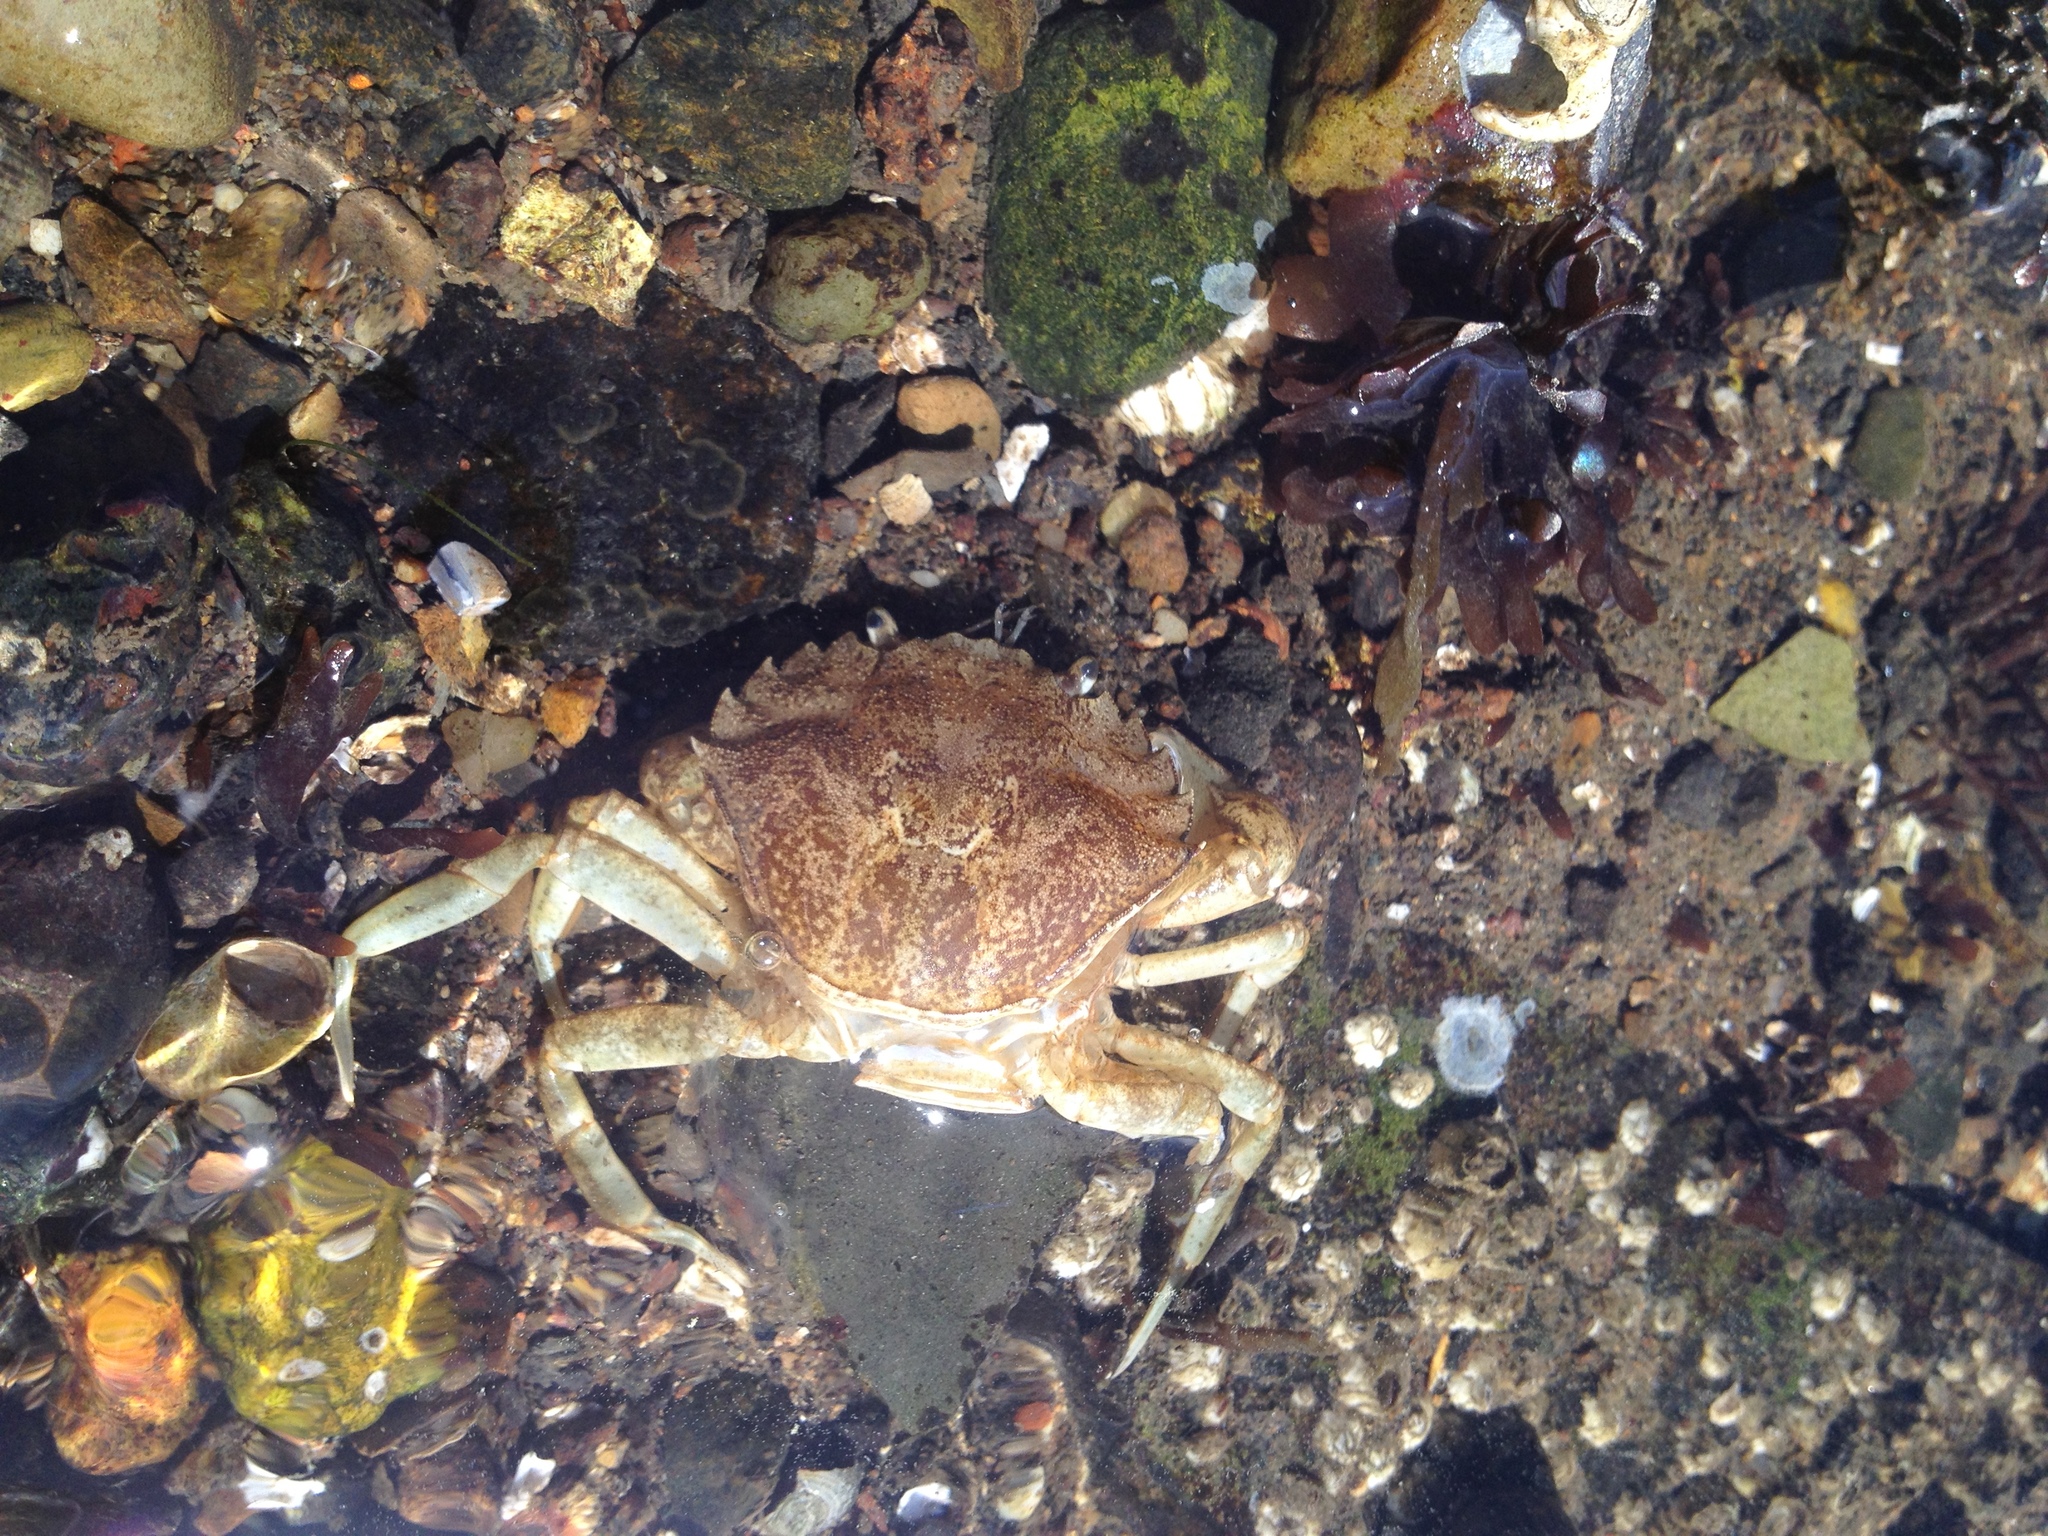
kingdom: Animalia
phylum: Arthropoda
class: Malacostraca
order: Decapoda
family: Carcinidae
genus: Carcinus
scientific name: Carcinus maenas
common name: European green crab
